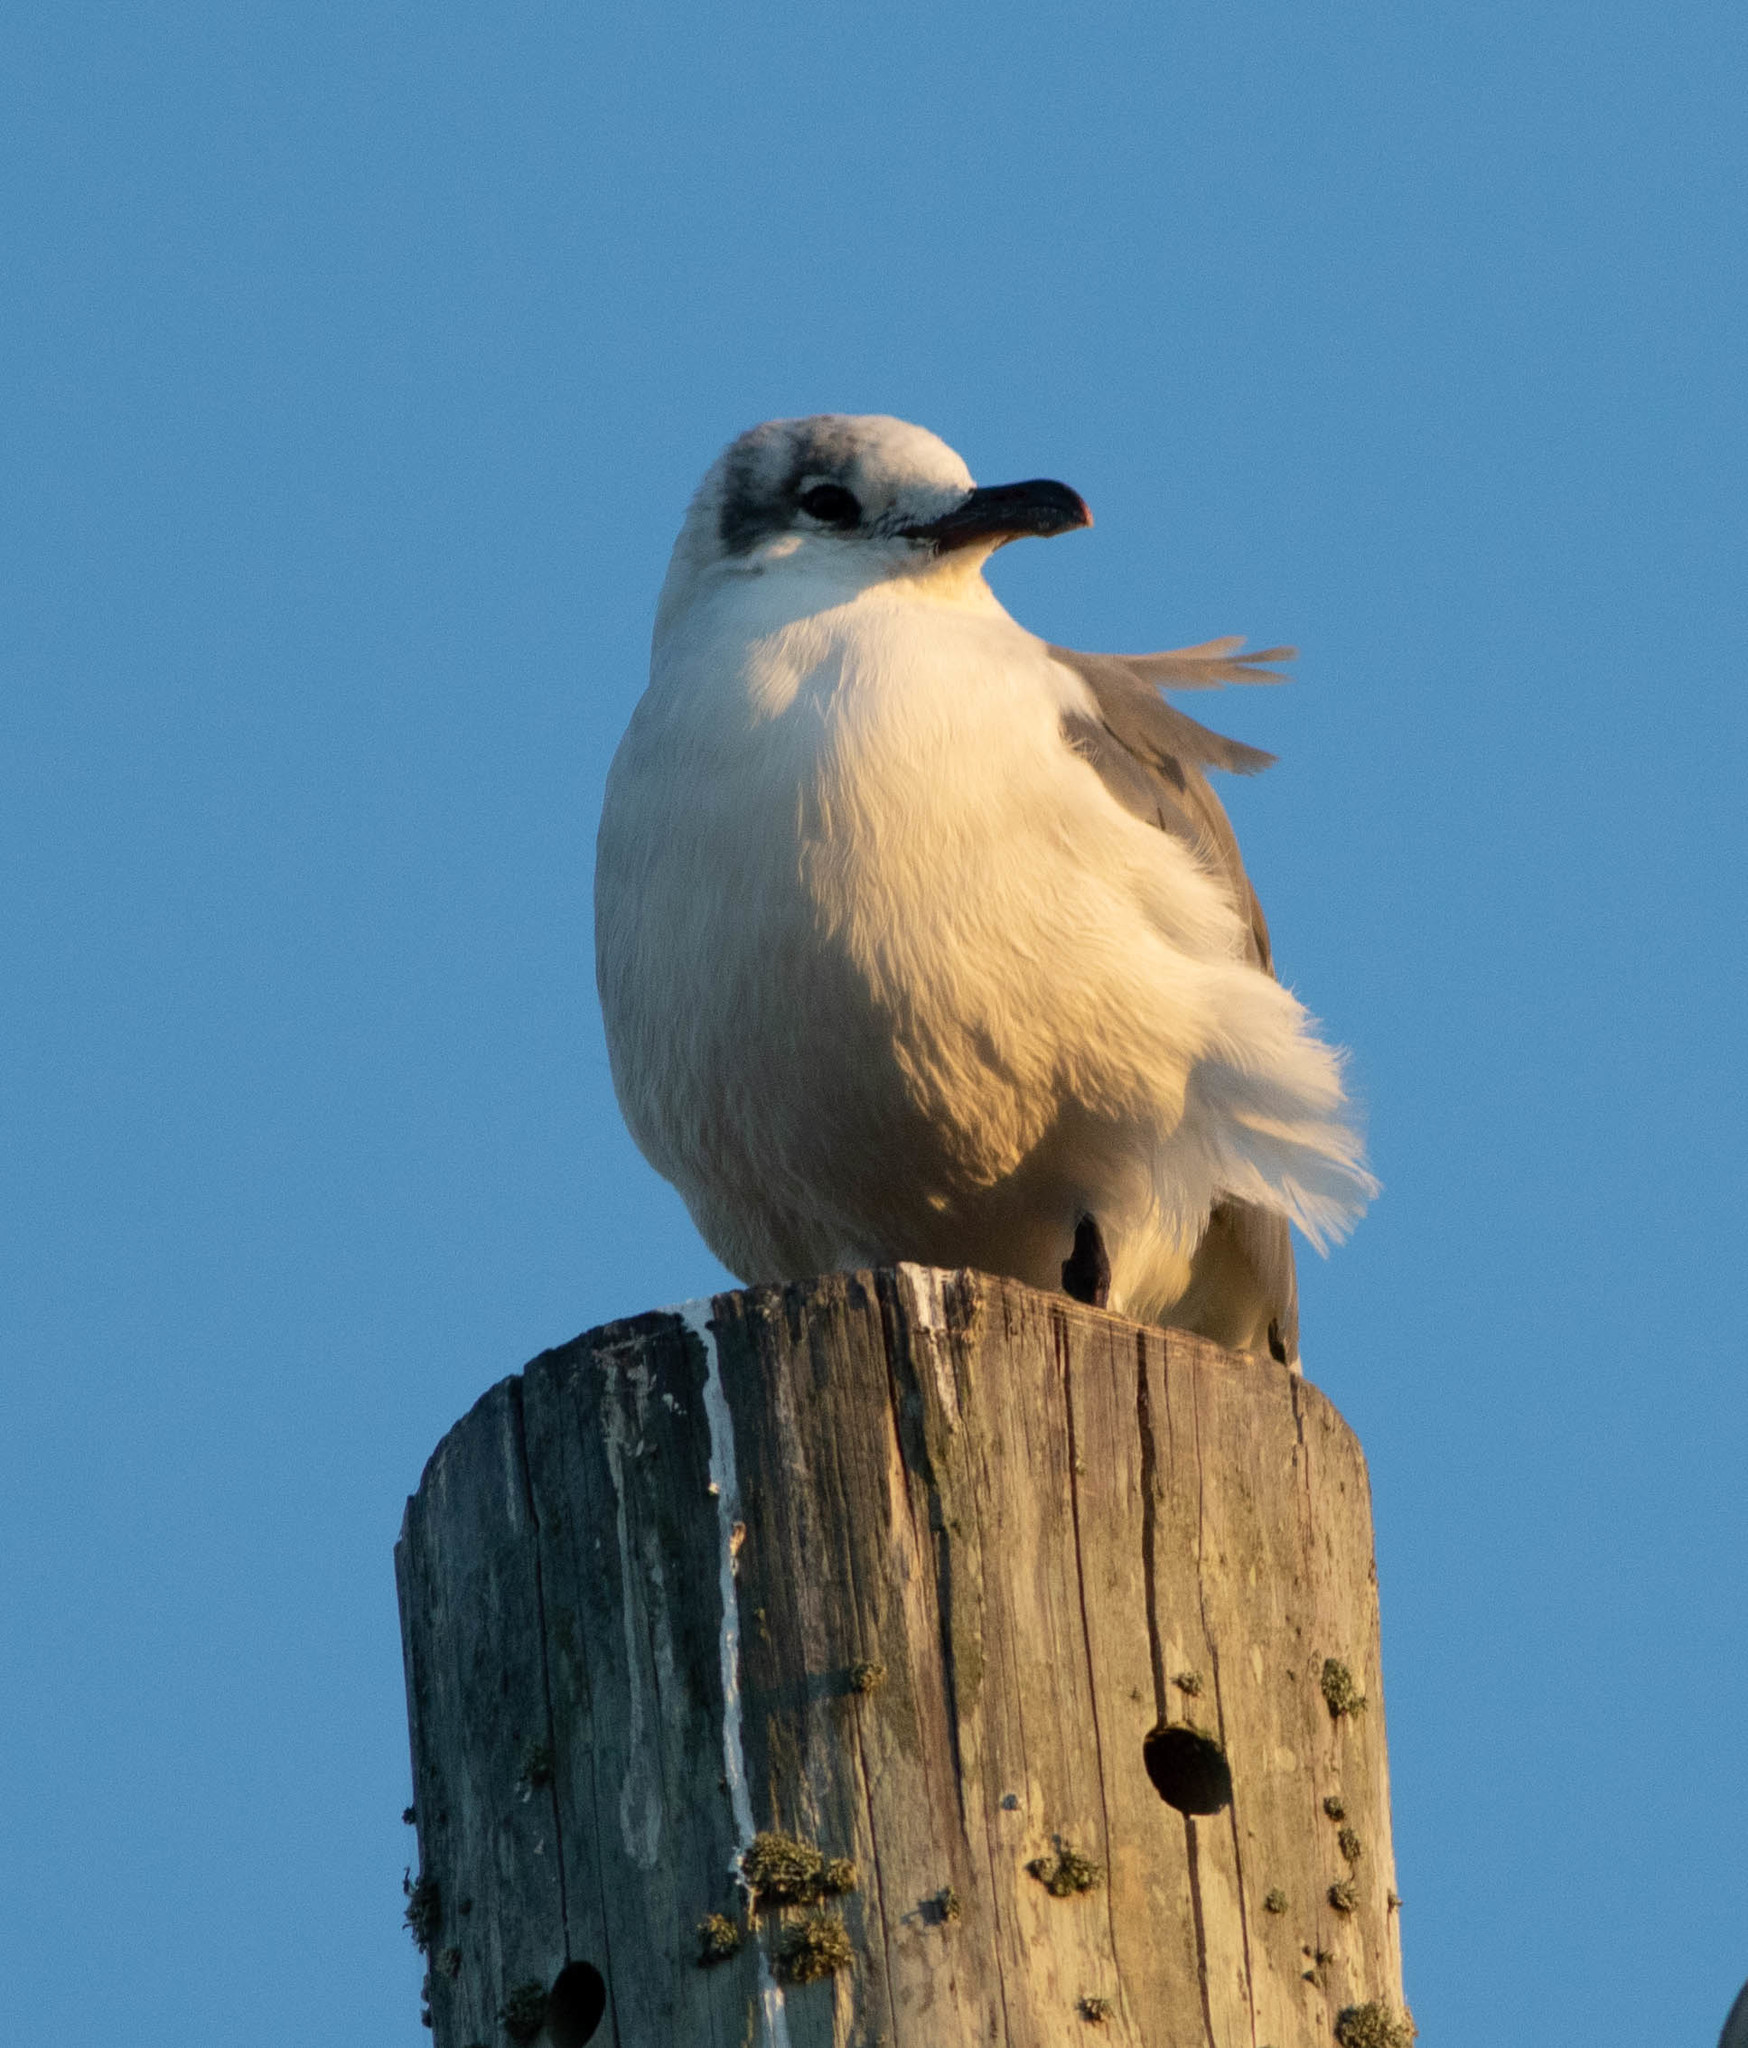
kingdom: Animalia
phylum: Chordata
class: Aves
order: Charadriiformes
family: Laridae
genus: Leucophaeus
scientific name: Leucophaeus atricilla
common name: Laughing gull
